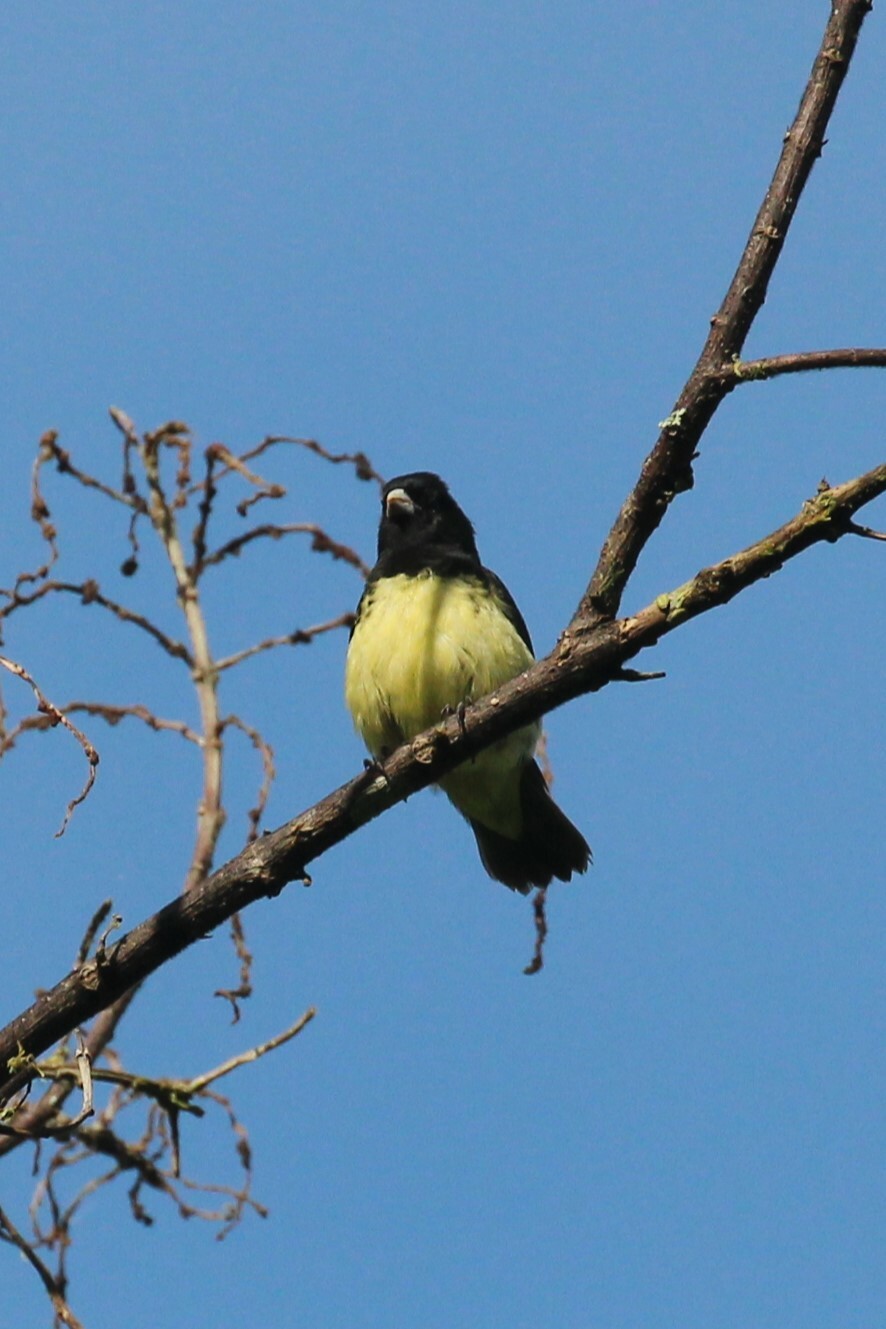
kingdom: Animalia
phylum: Chordata
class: Aves
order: Passeriformes
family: Thraupidae
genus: Sporophila
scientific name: Sporophila nigricollis
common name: Yellow-bellied seedeater
